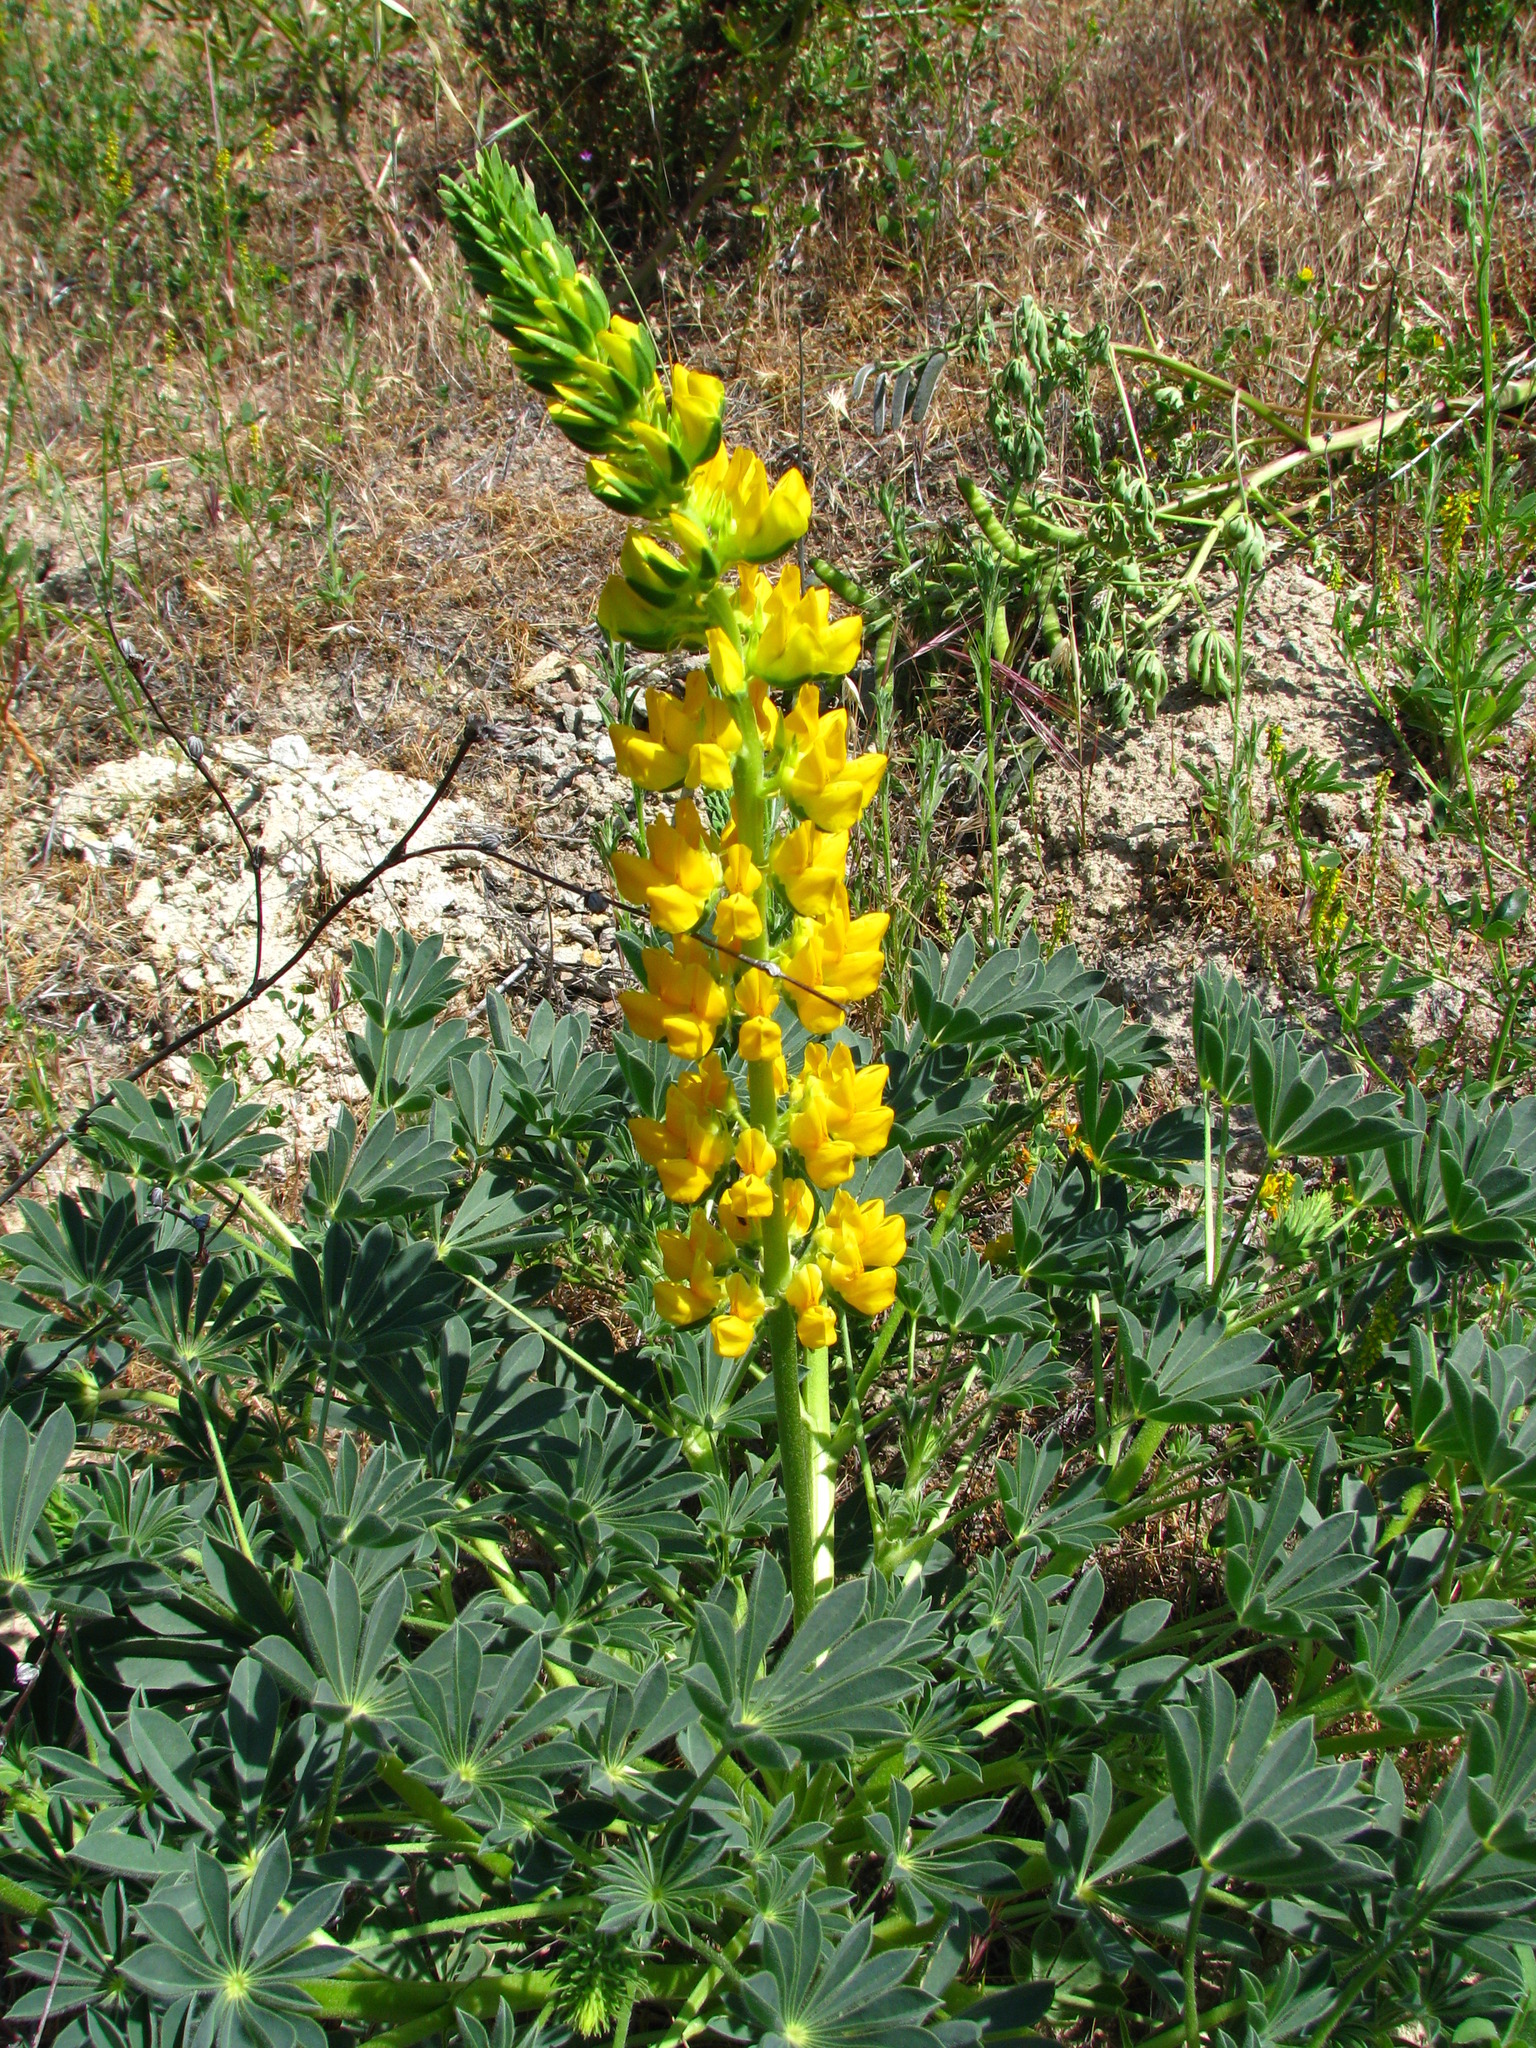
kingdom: Plantae
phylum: Tracheophyta
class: Magnoliopsida
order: Fabales
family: Fabaceae
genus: Lupinus
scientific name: Lupinus microcarpus
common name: Chick lupine
